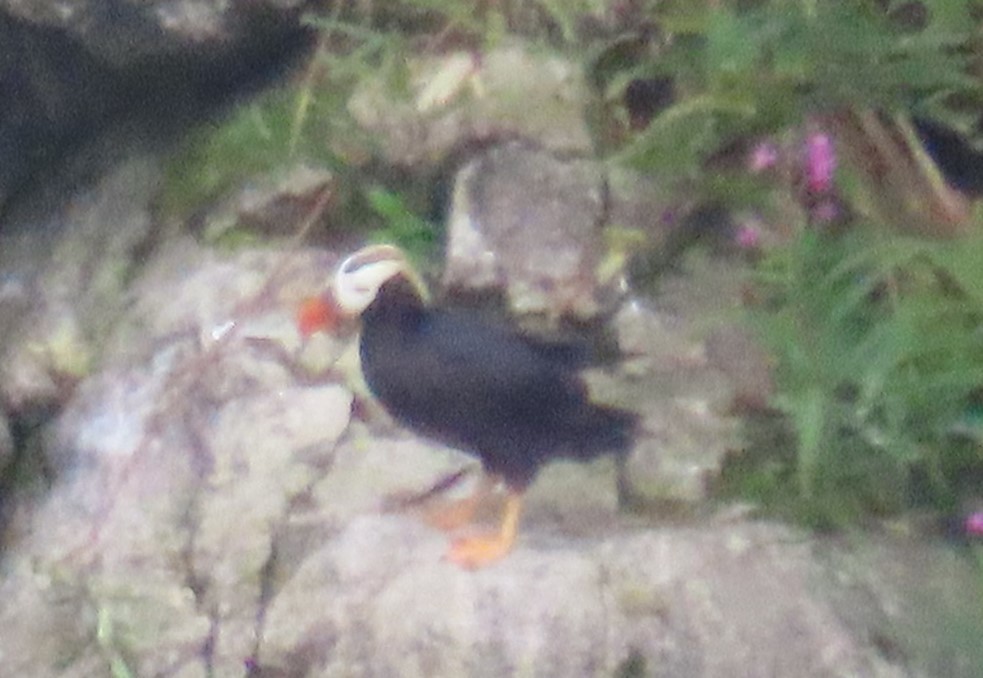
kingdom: Animalia
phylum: Chordata
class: Aves
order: Charadriiformes
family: Alcidae
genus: Fratercula
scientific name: Fratercula cirrhata
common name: Tufted puffin
